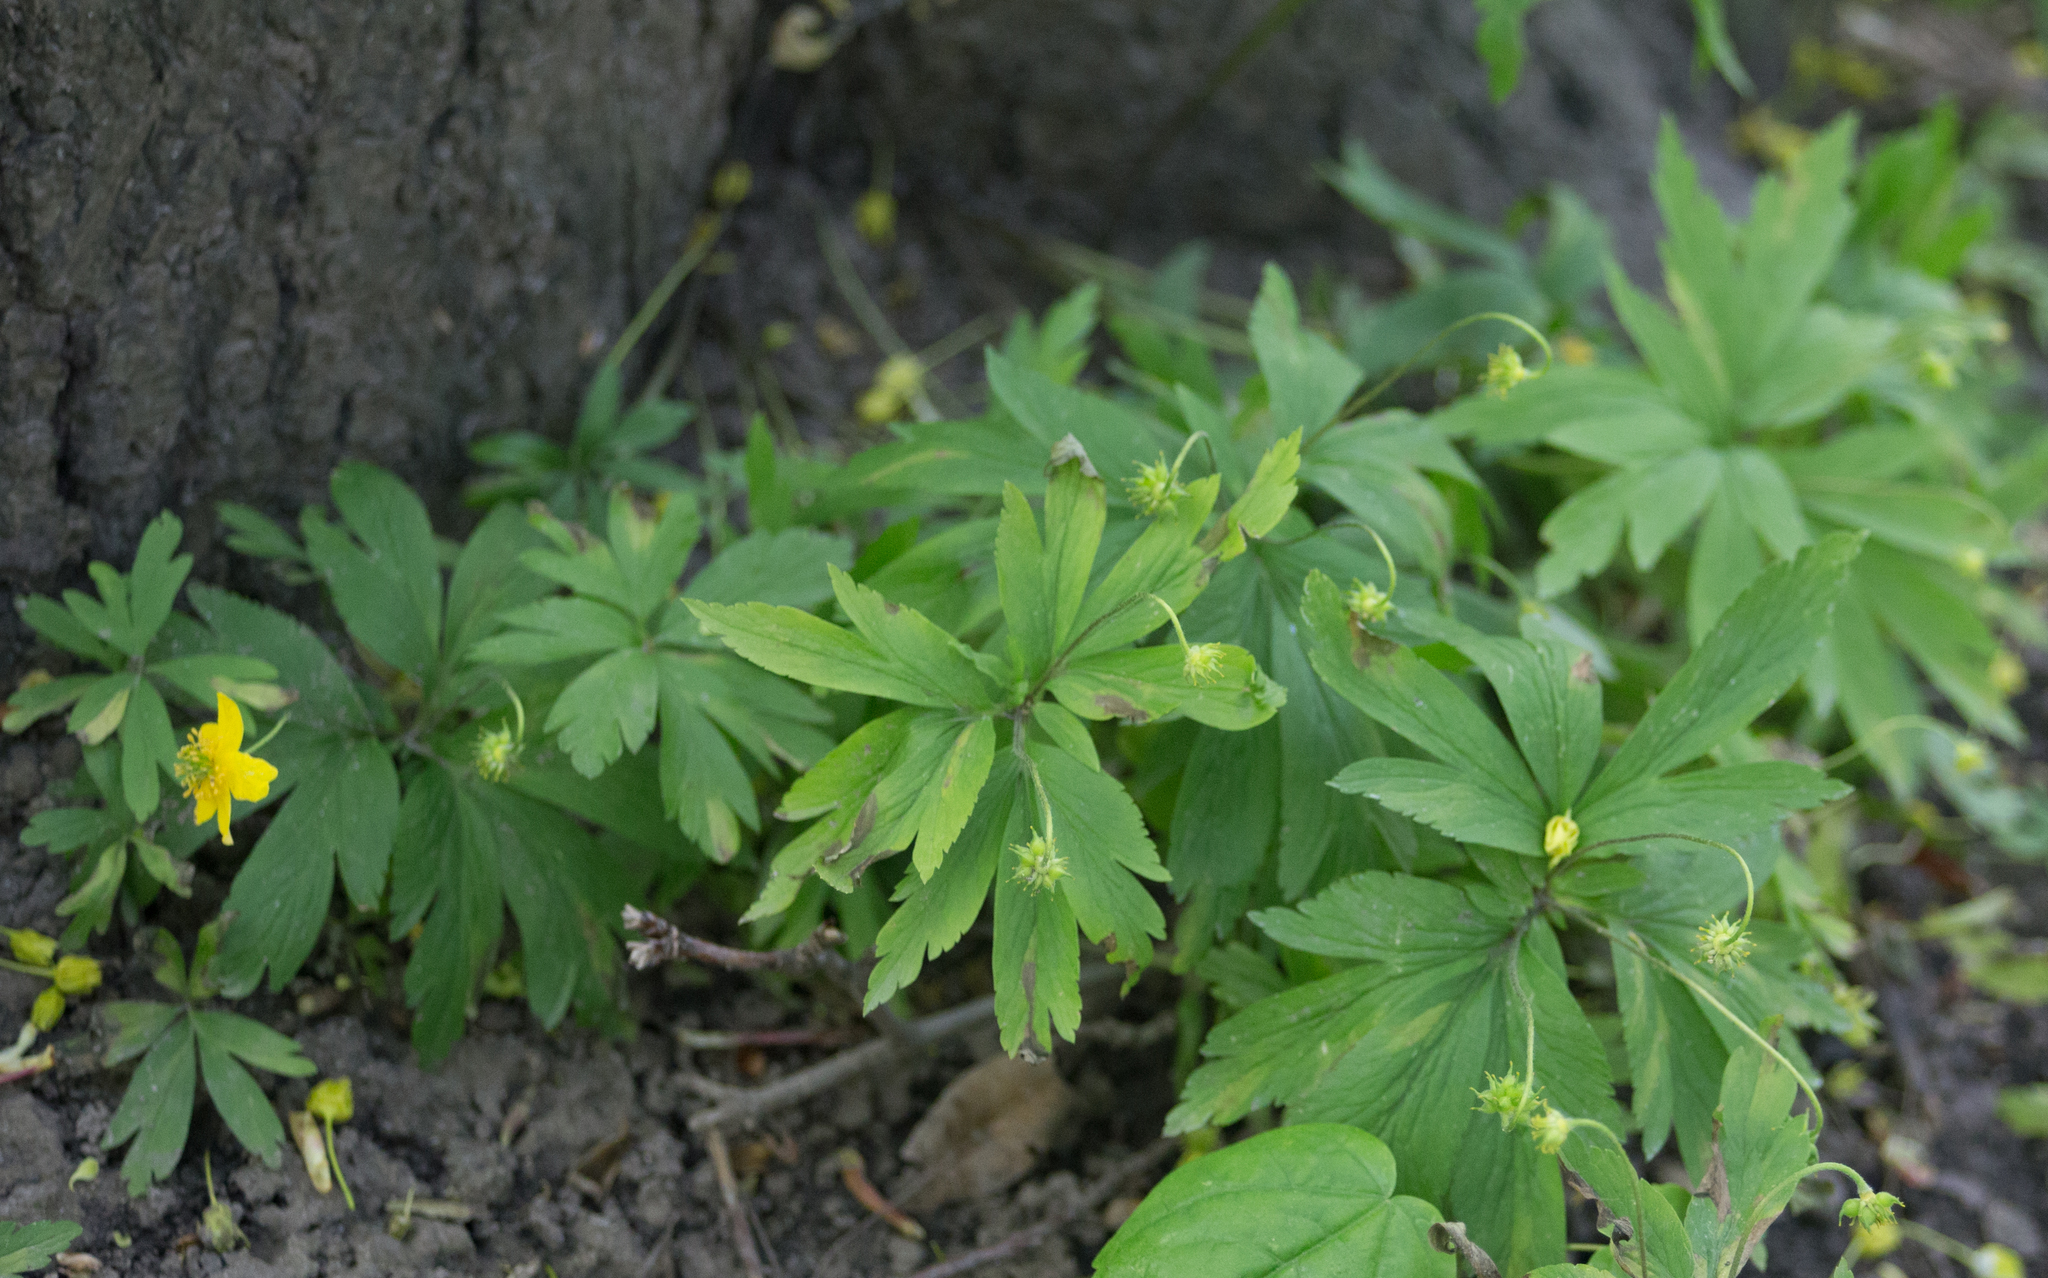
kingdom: Plantae
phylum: Tracheophyta
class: Magnoliopsida
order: Ranunculales
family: Ranunculaceae
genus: Anemone
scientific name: Anemone ranunculoides
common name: Yellow anemone
